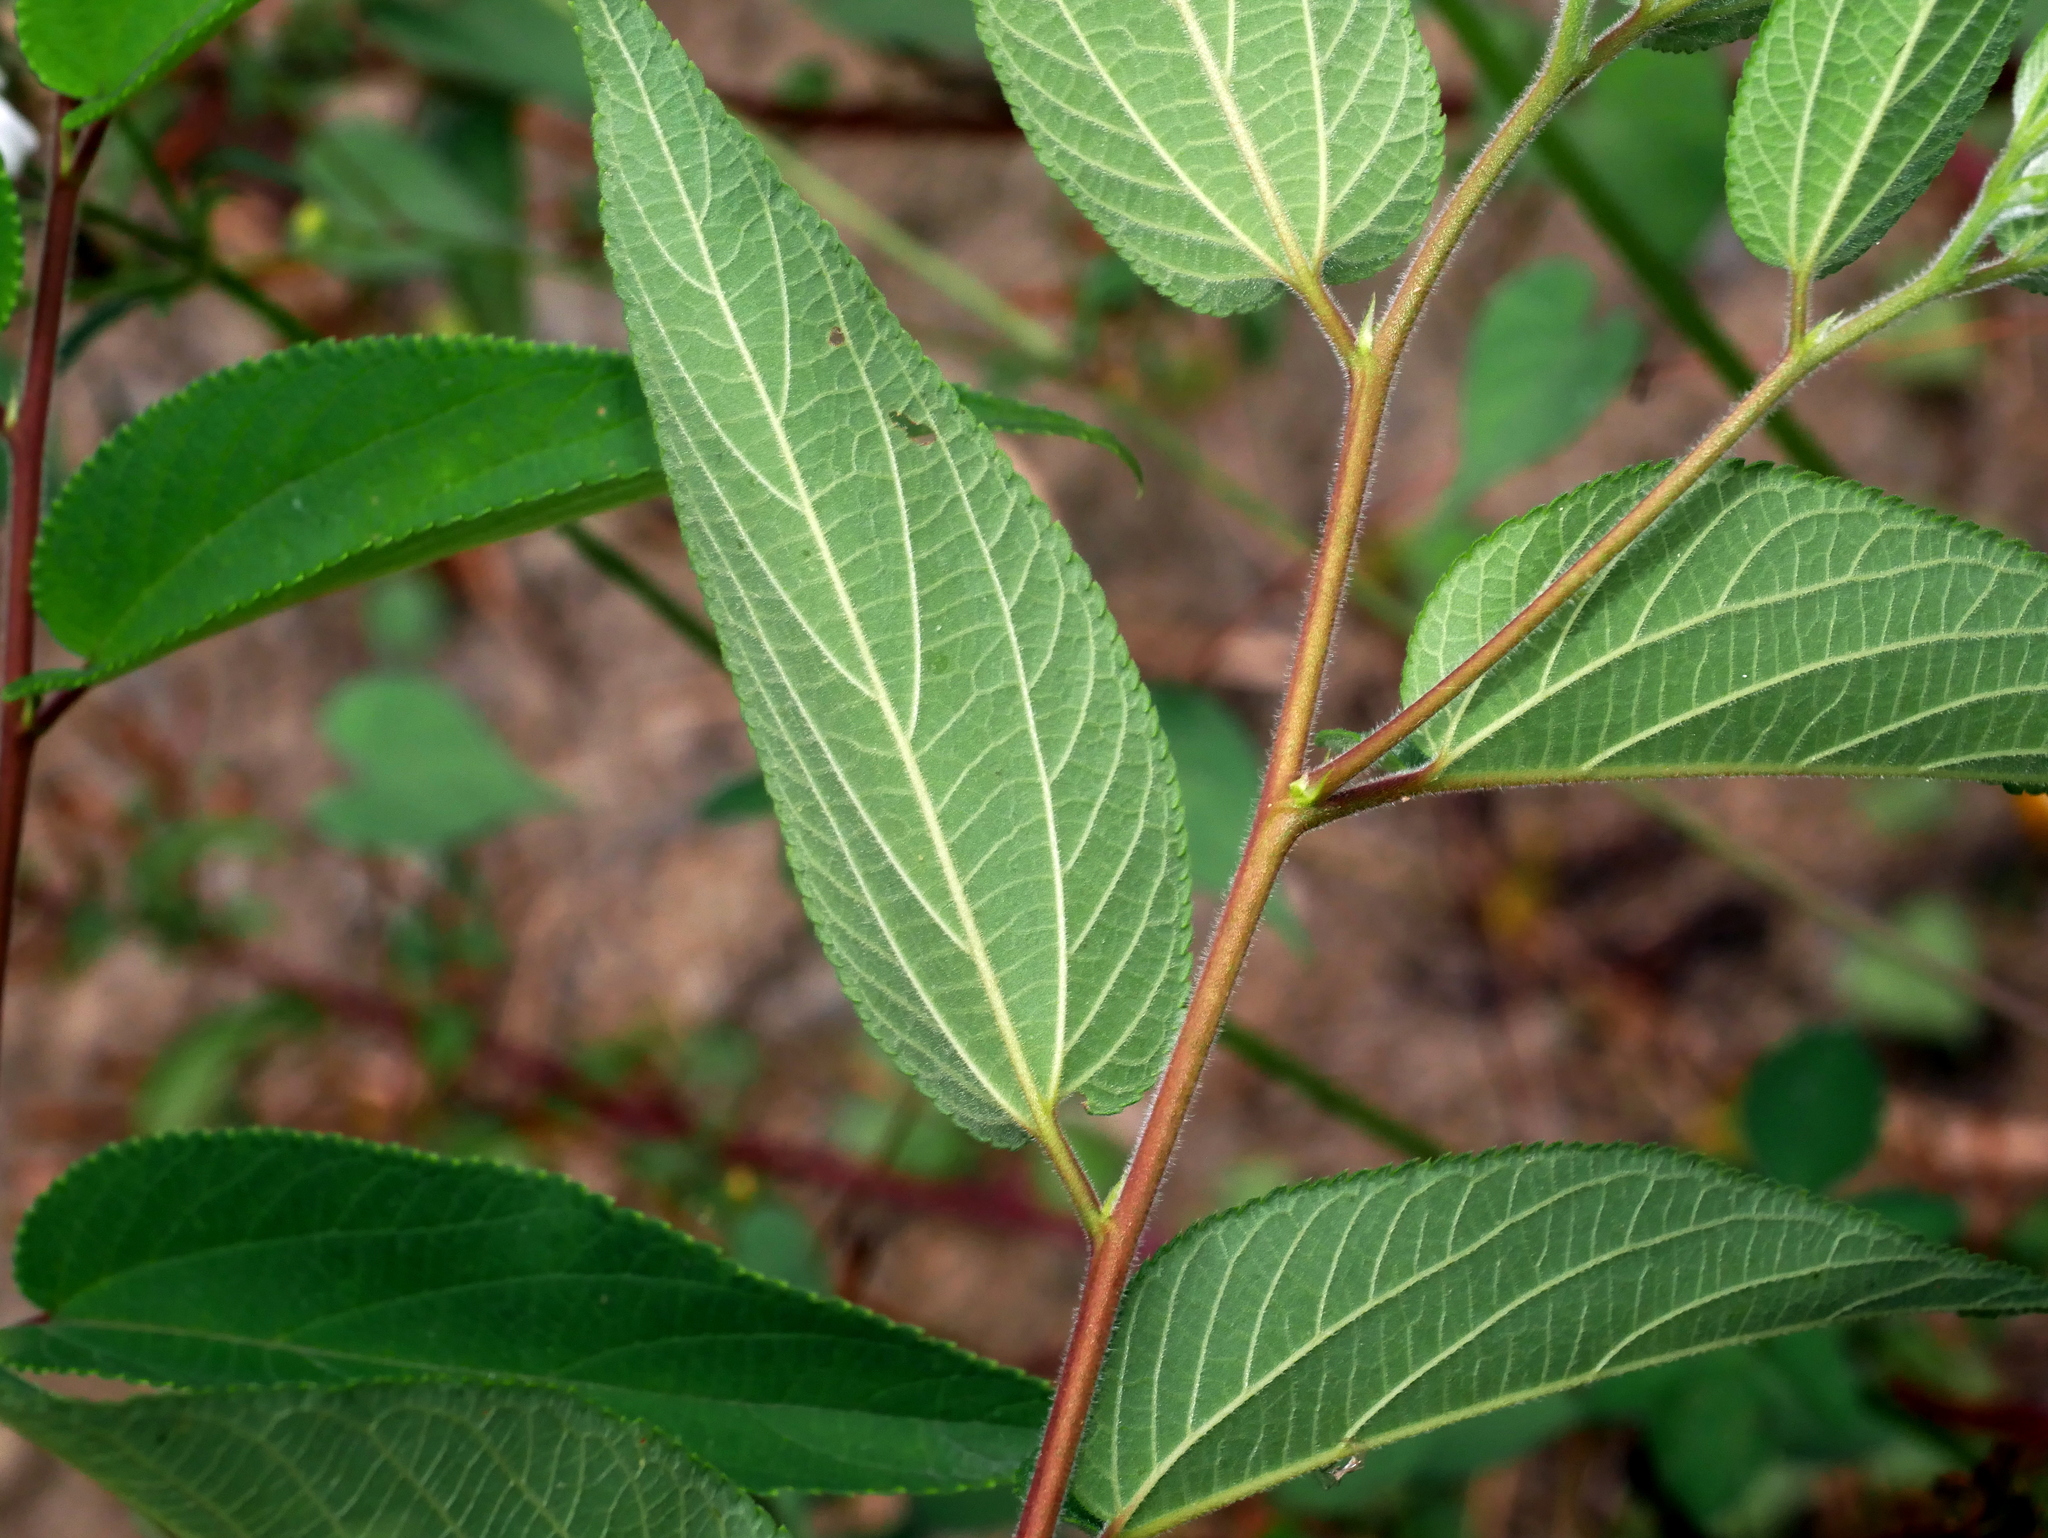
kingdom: Plantae
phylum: Tracheophyta
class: Magnoliopsida
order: Rosales
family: Cannabaceae
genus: Trema
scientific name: Trema tomentosum
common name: Peach-leaf-poisonbush
